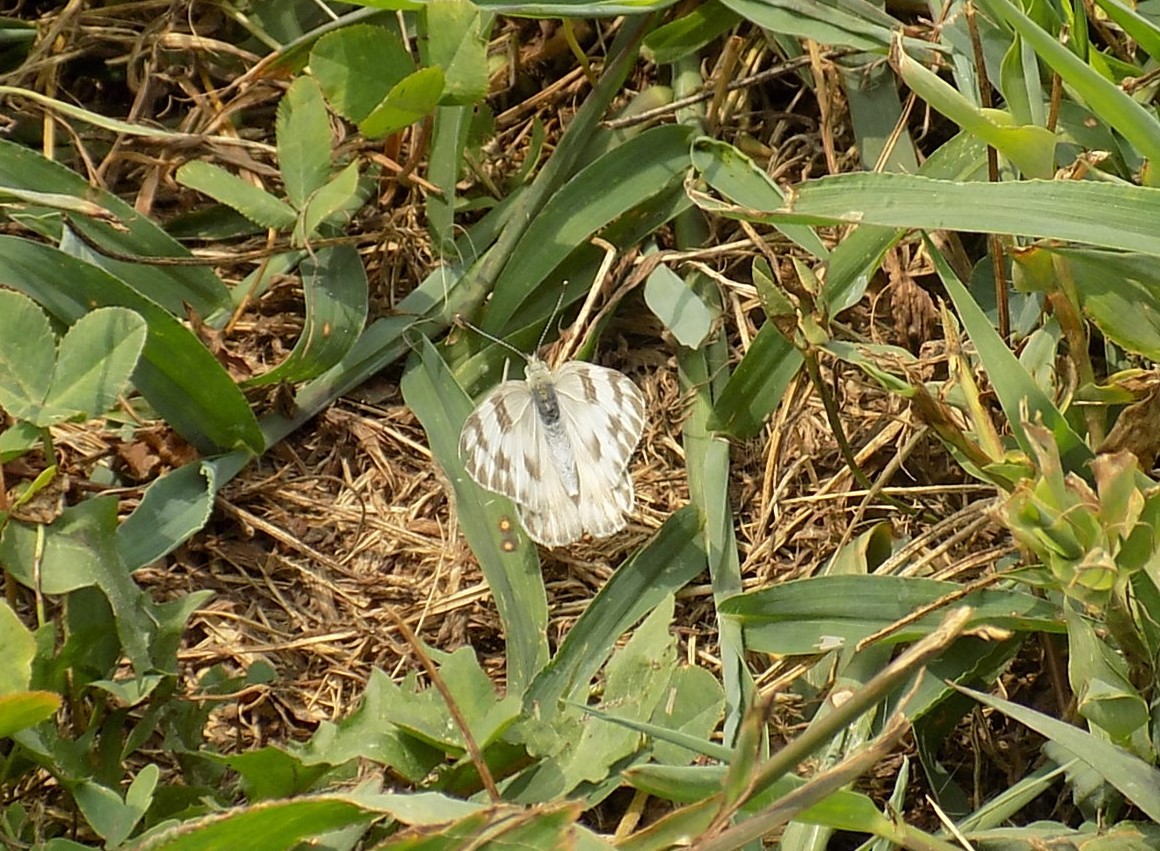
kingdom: Animalia
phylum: Arthropoda
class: Insecta
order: Lepidoptera
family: Pieridae
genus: Pontia
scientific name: Pontia protodice
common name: Checkered white
